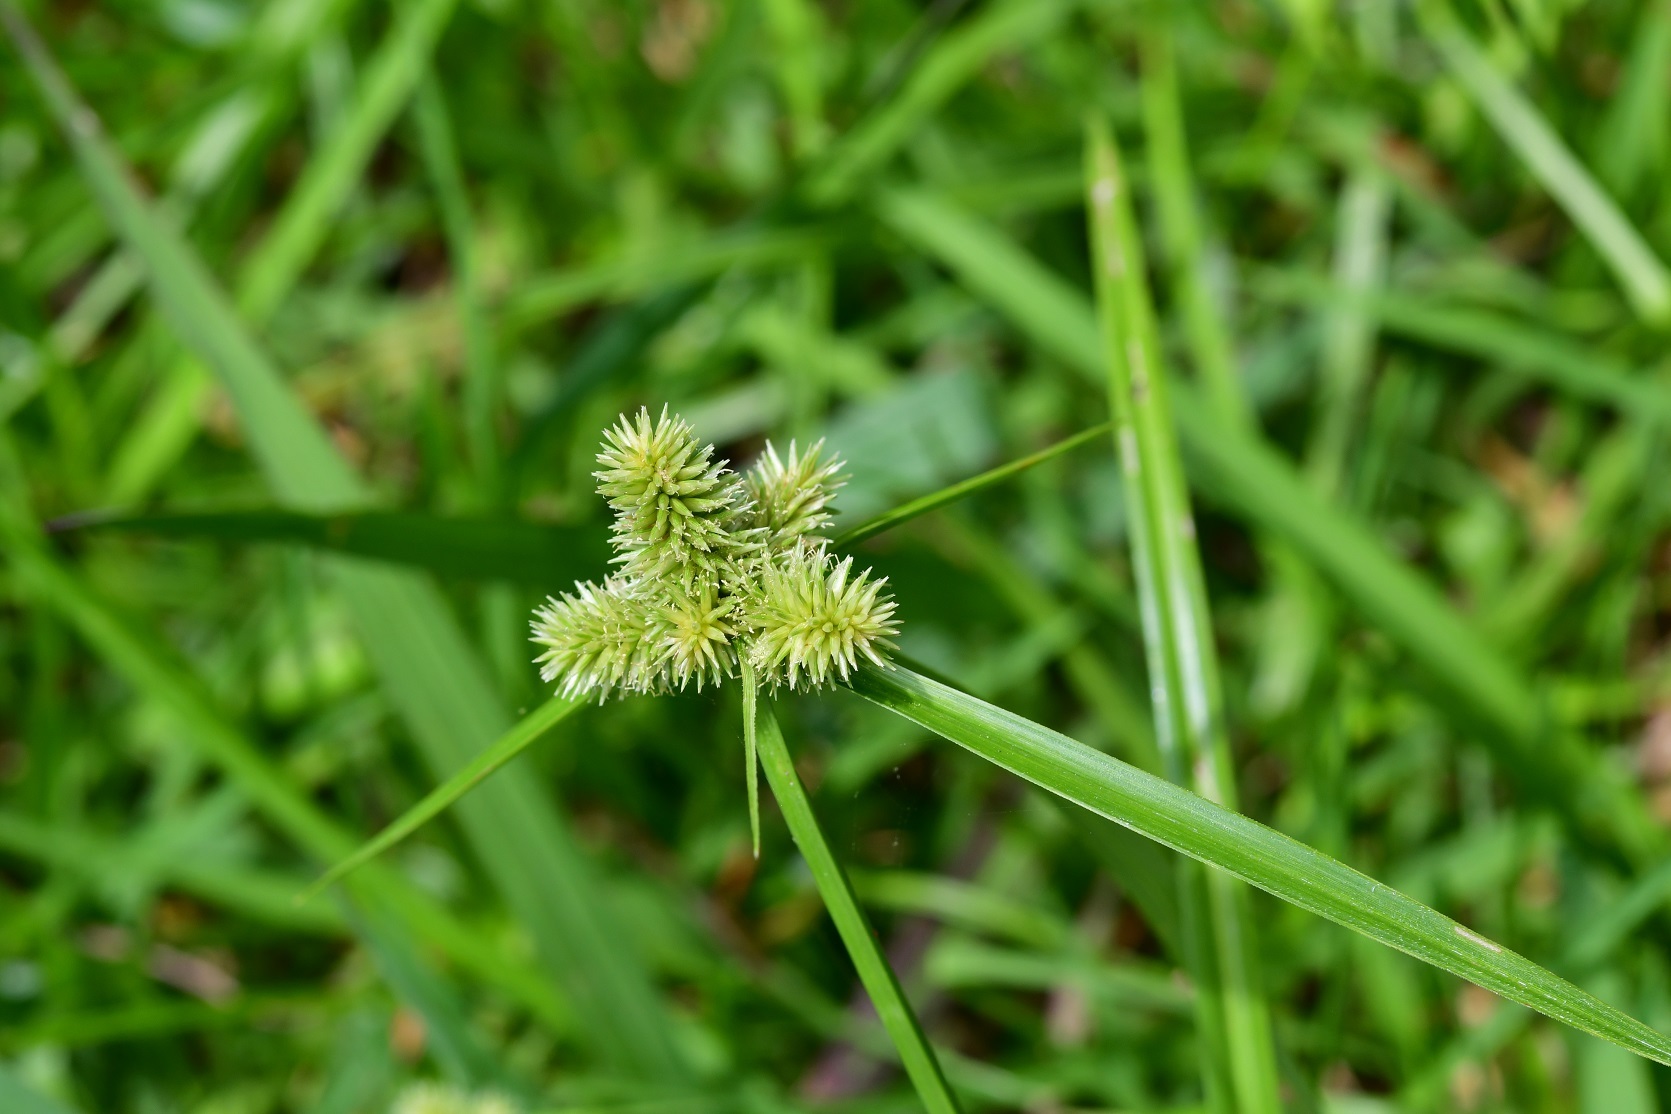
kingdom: Plantae
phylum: Tracheophyta
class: Liliopsida
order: Poales
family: Cyperaceae
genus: Cyperus
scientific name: Cyperus svensonii
